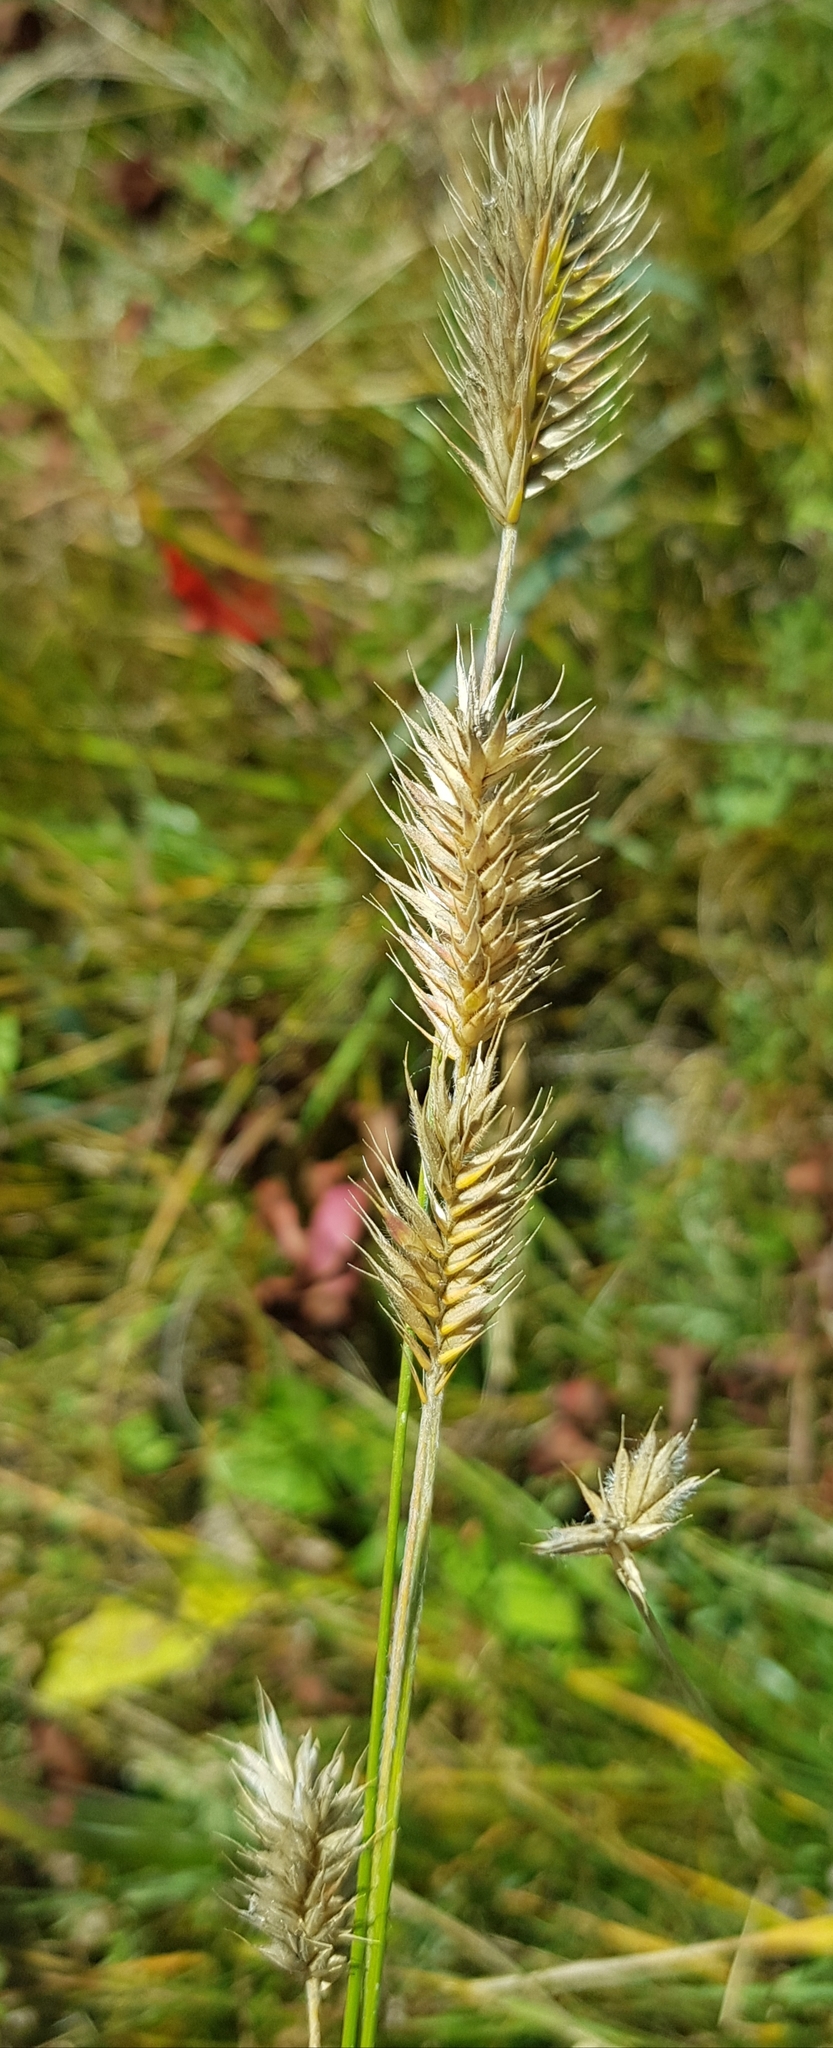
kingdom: Plantae
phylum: Tracheophyta
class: Liliopsida
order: Poales
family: Poaceae
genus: Agropyron
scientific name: Agropyron cristatum
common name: Crested wheatgrass
